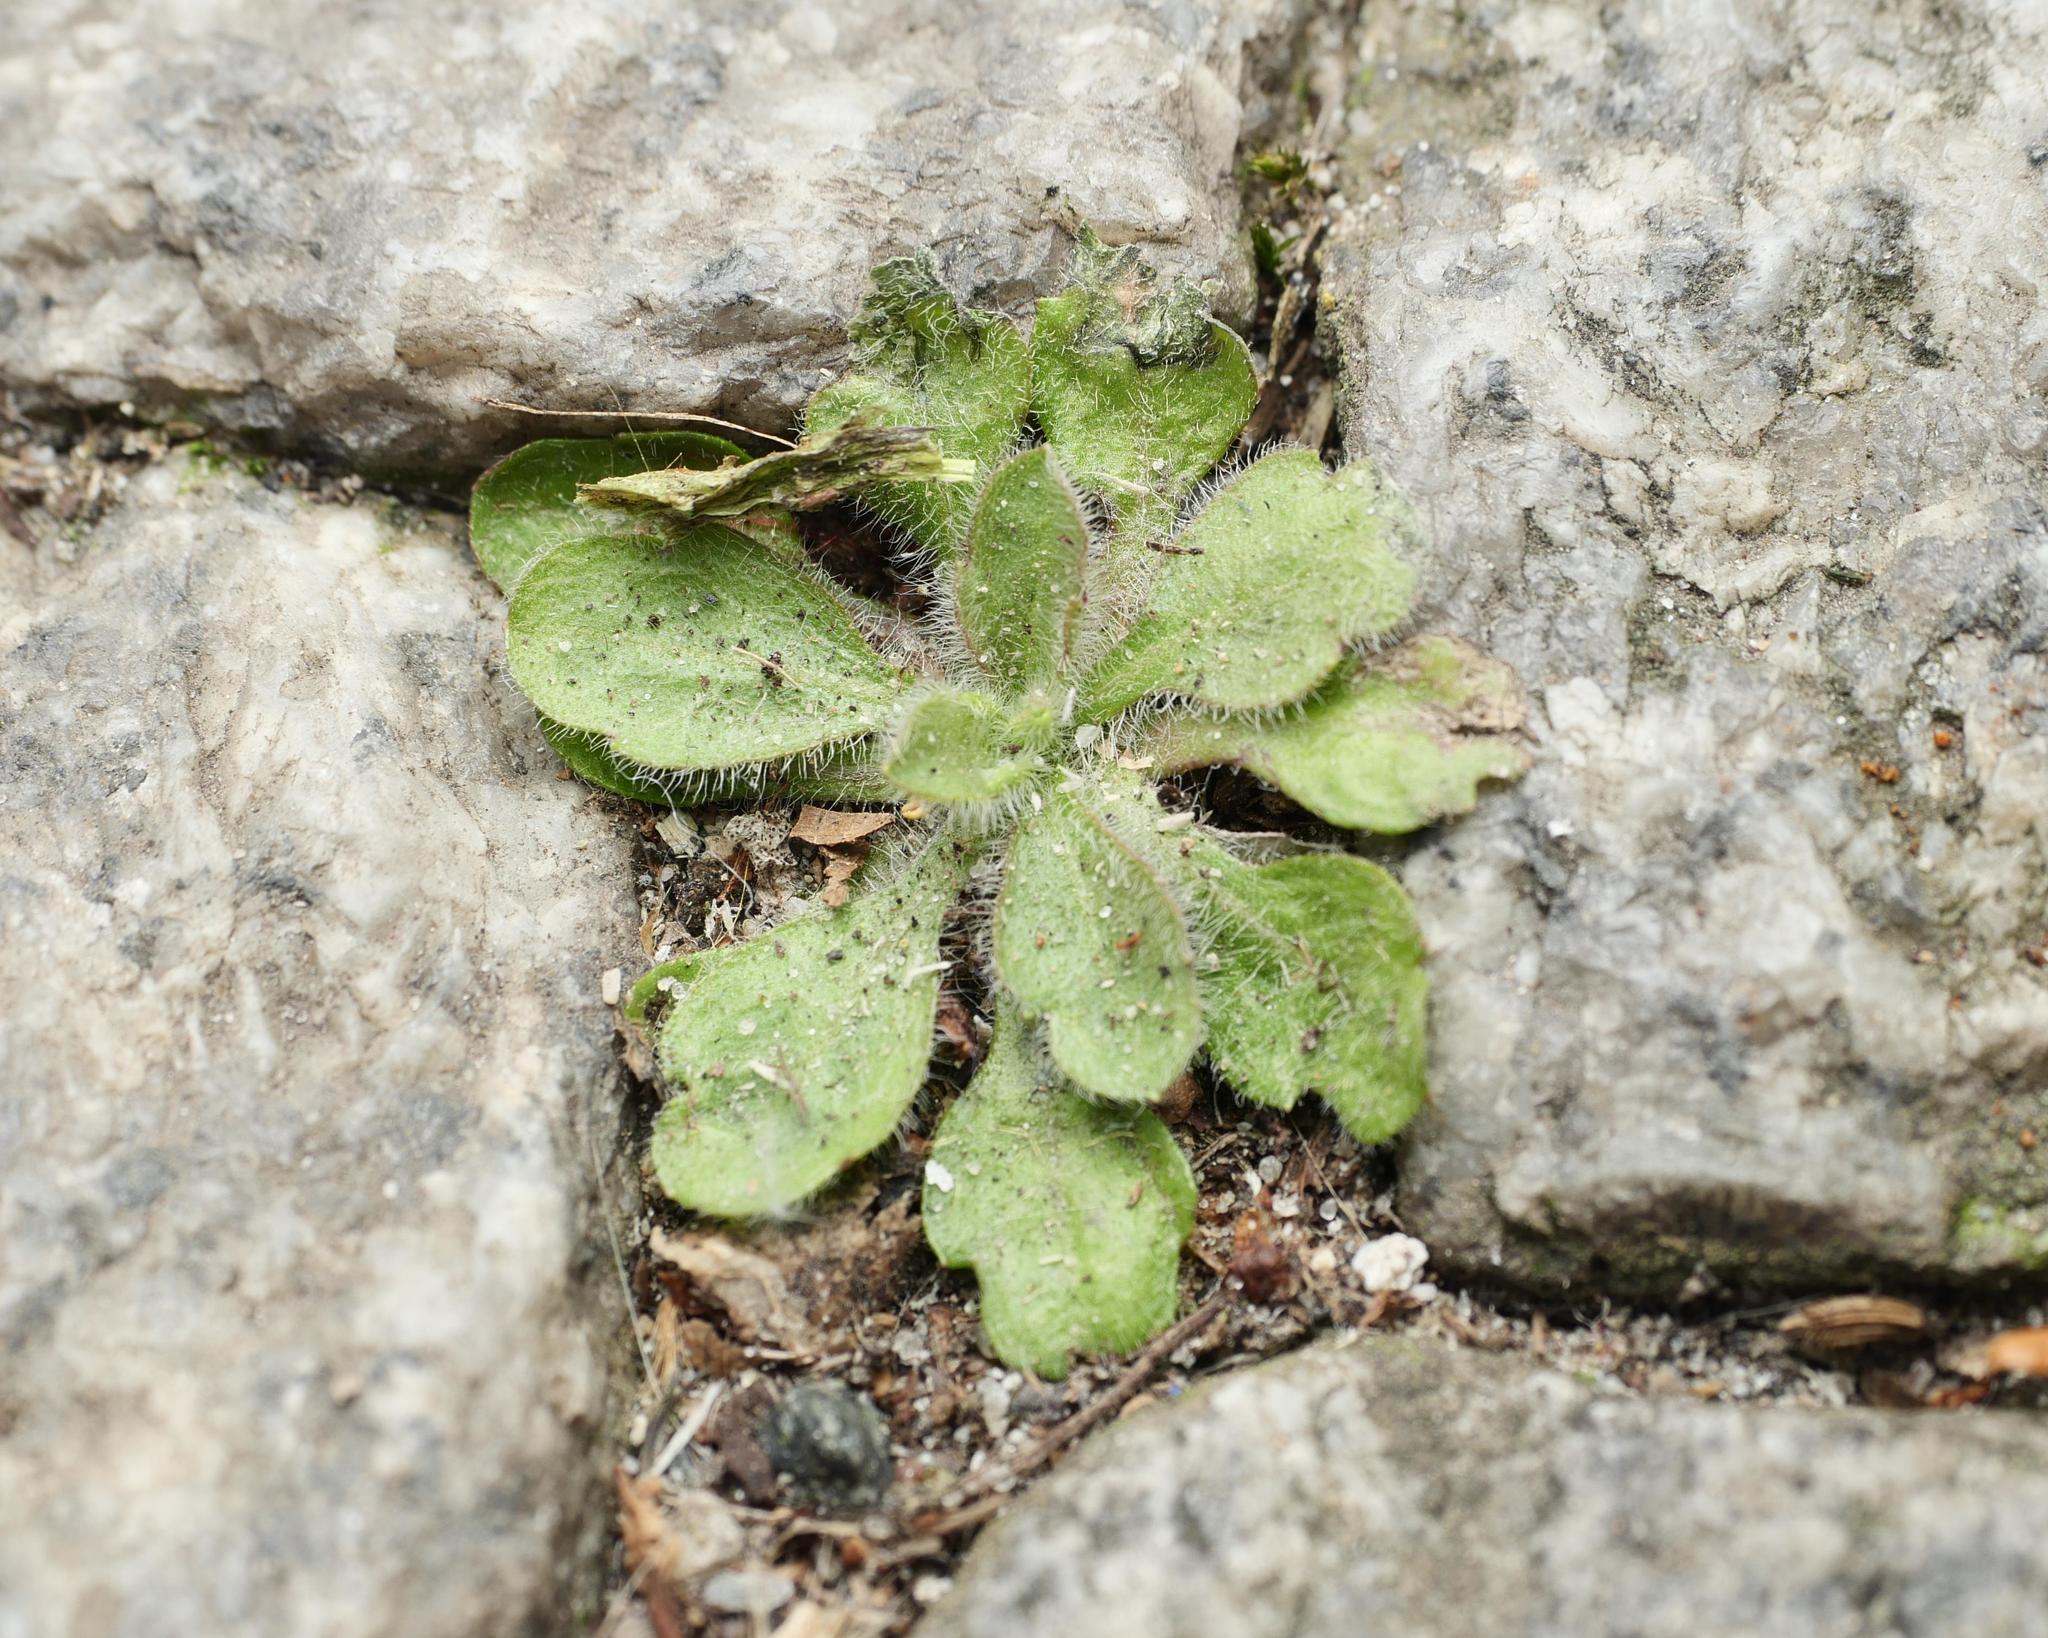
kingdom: Plantae
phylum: Tracheophyta
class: Magnoliopsida
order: Asterales
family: Asteraceae
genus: Erigeron
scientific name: Erigeron canadensis
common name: Canadian fleabane
